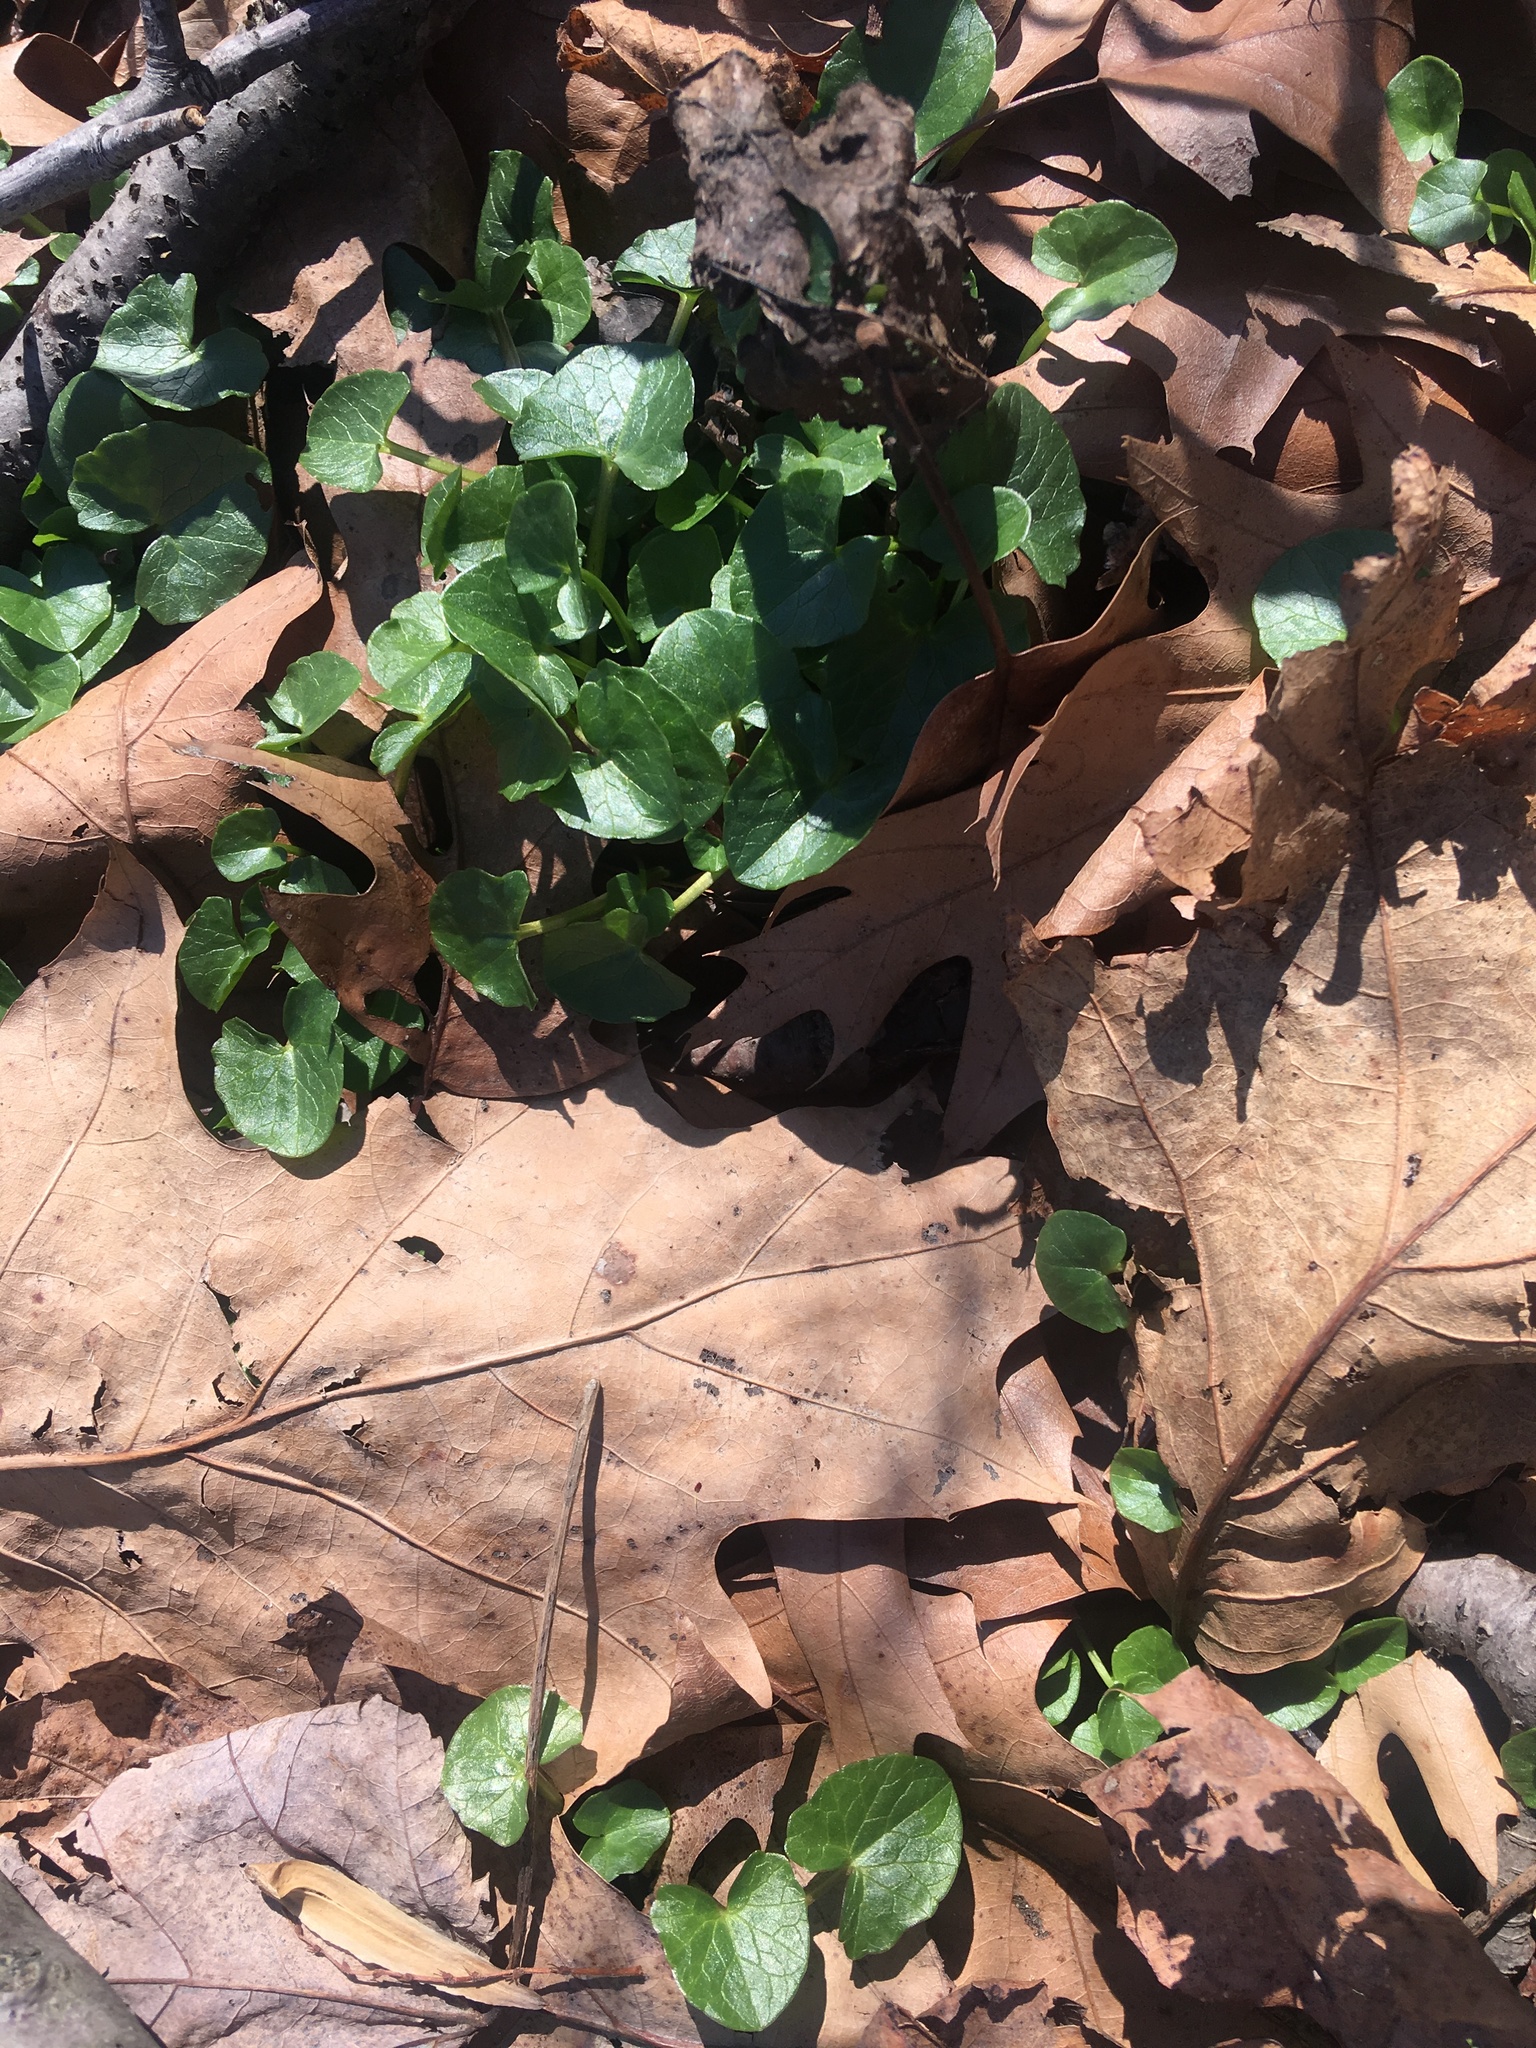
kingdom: Plantae
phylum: Tracheophyta
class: Magnoliopsida
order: Ranunculales
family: Ranunculaceae
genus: Ficaria
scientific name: Ficaria verna
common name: Lesser celandine
